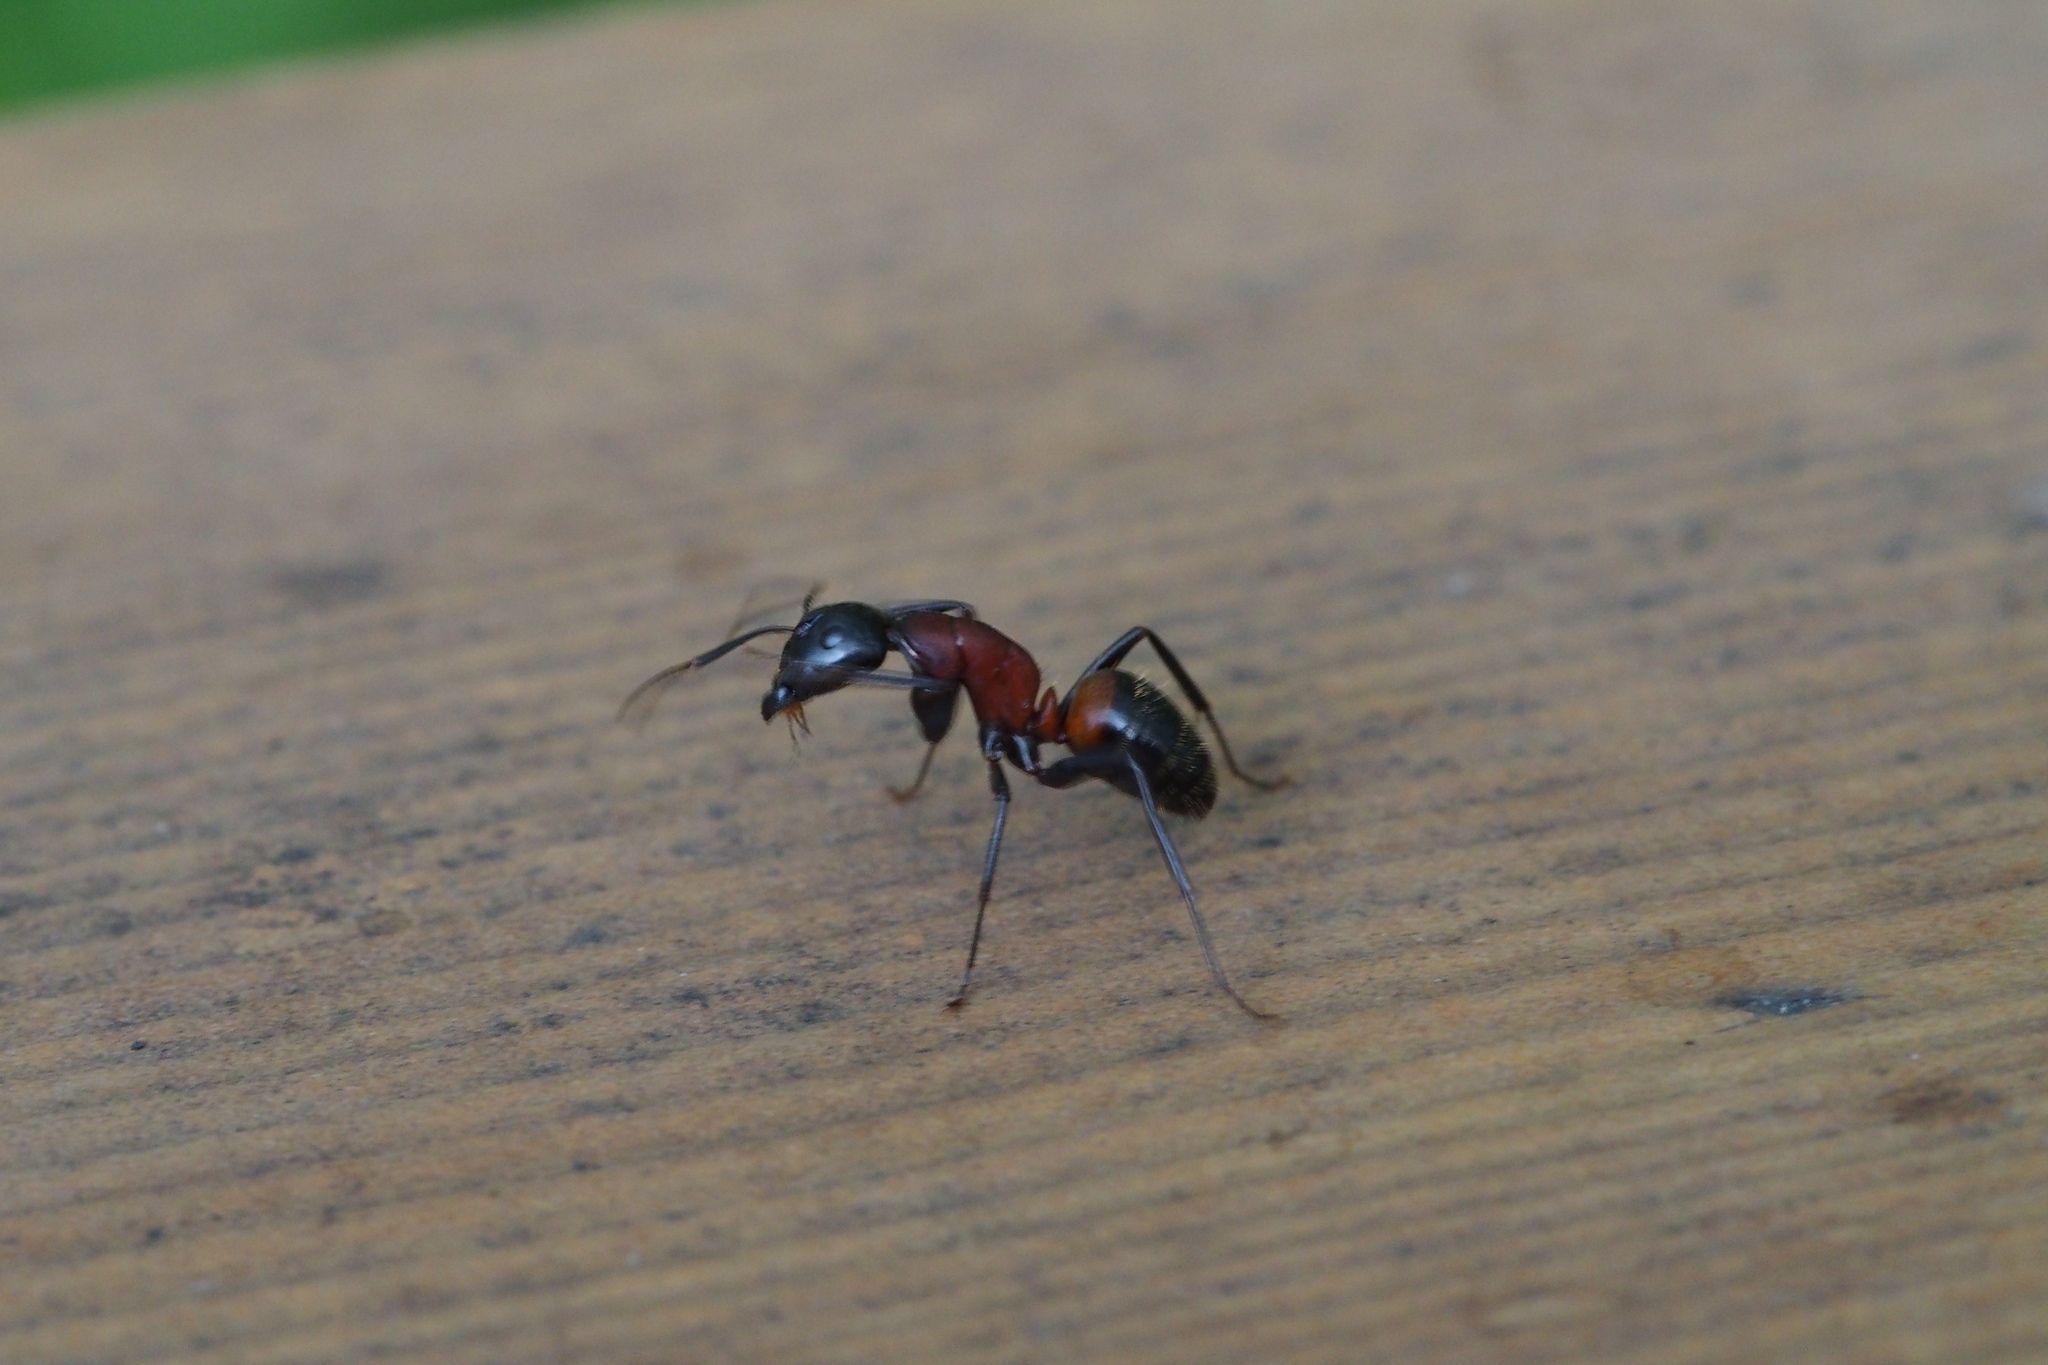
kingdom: Animalia
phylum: Arthropoda
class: Insecta
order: Hymenoptera
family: Formicidae
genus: Camponotus
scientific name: Camponotus obscuripes
